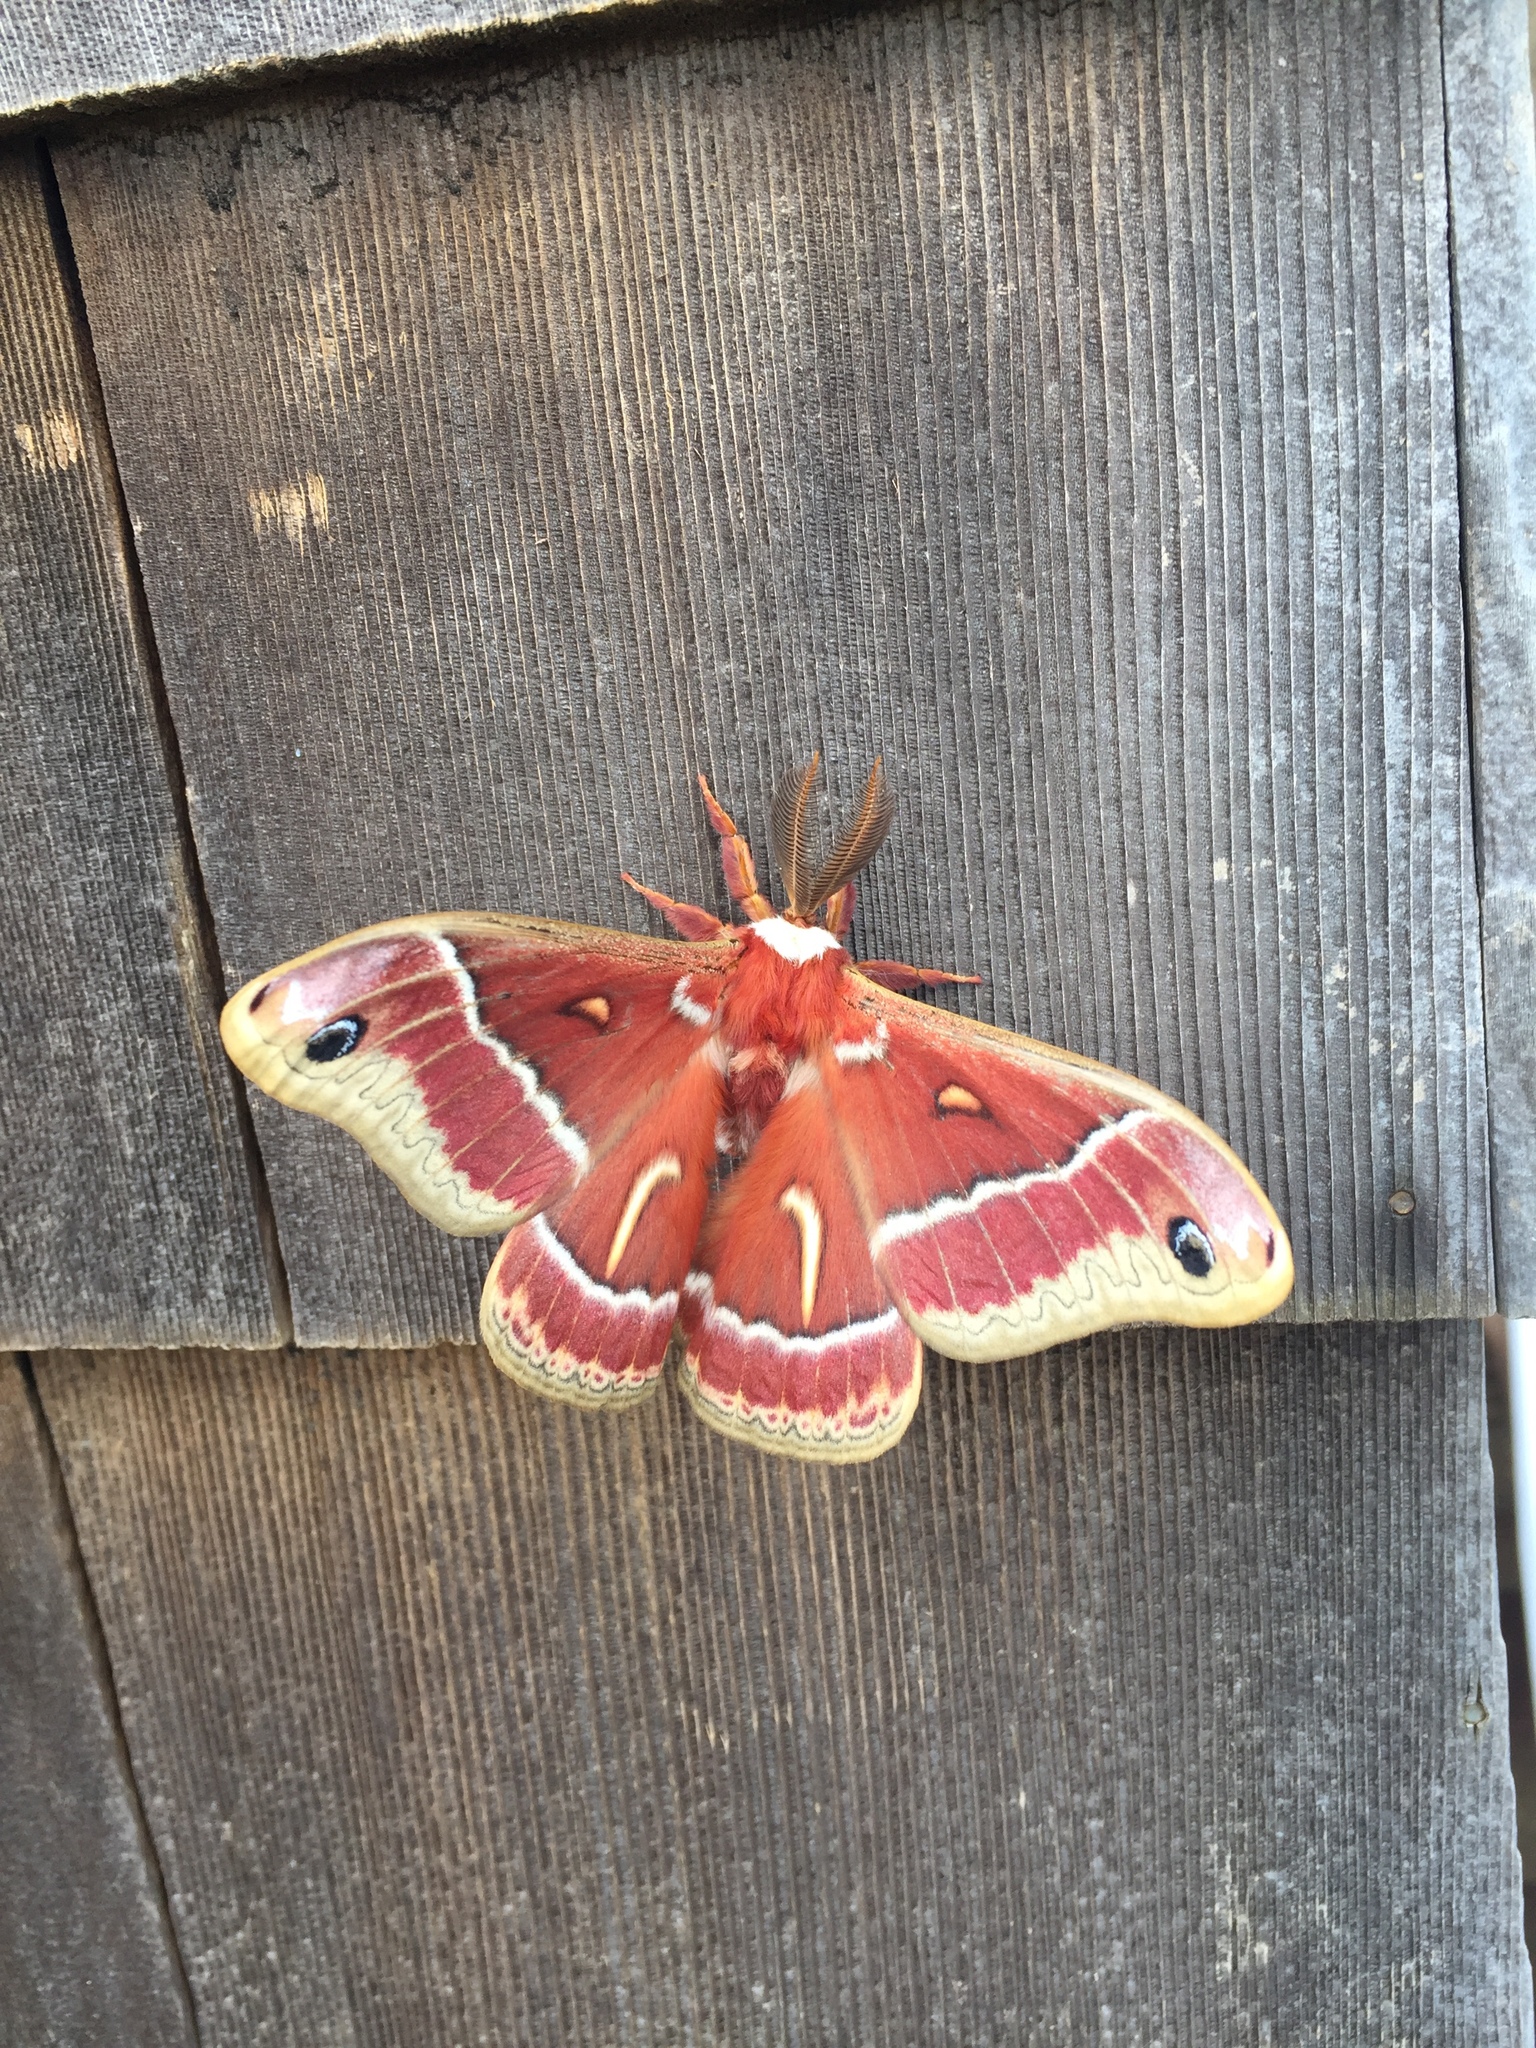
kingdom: Animalia
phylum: Arthropoda
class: Insecta
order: Lepidoptera
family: Saturniidae
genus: Hyalophora
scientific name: Hyalophora euryalus
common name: Ceanothus silkmoth
